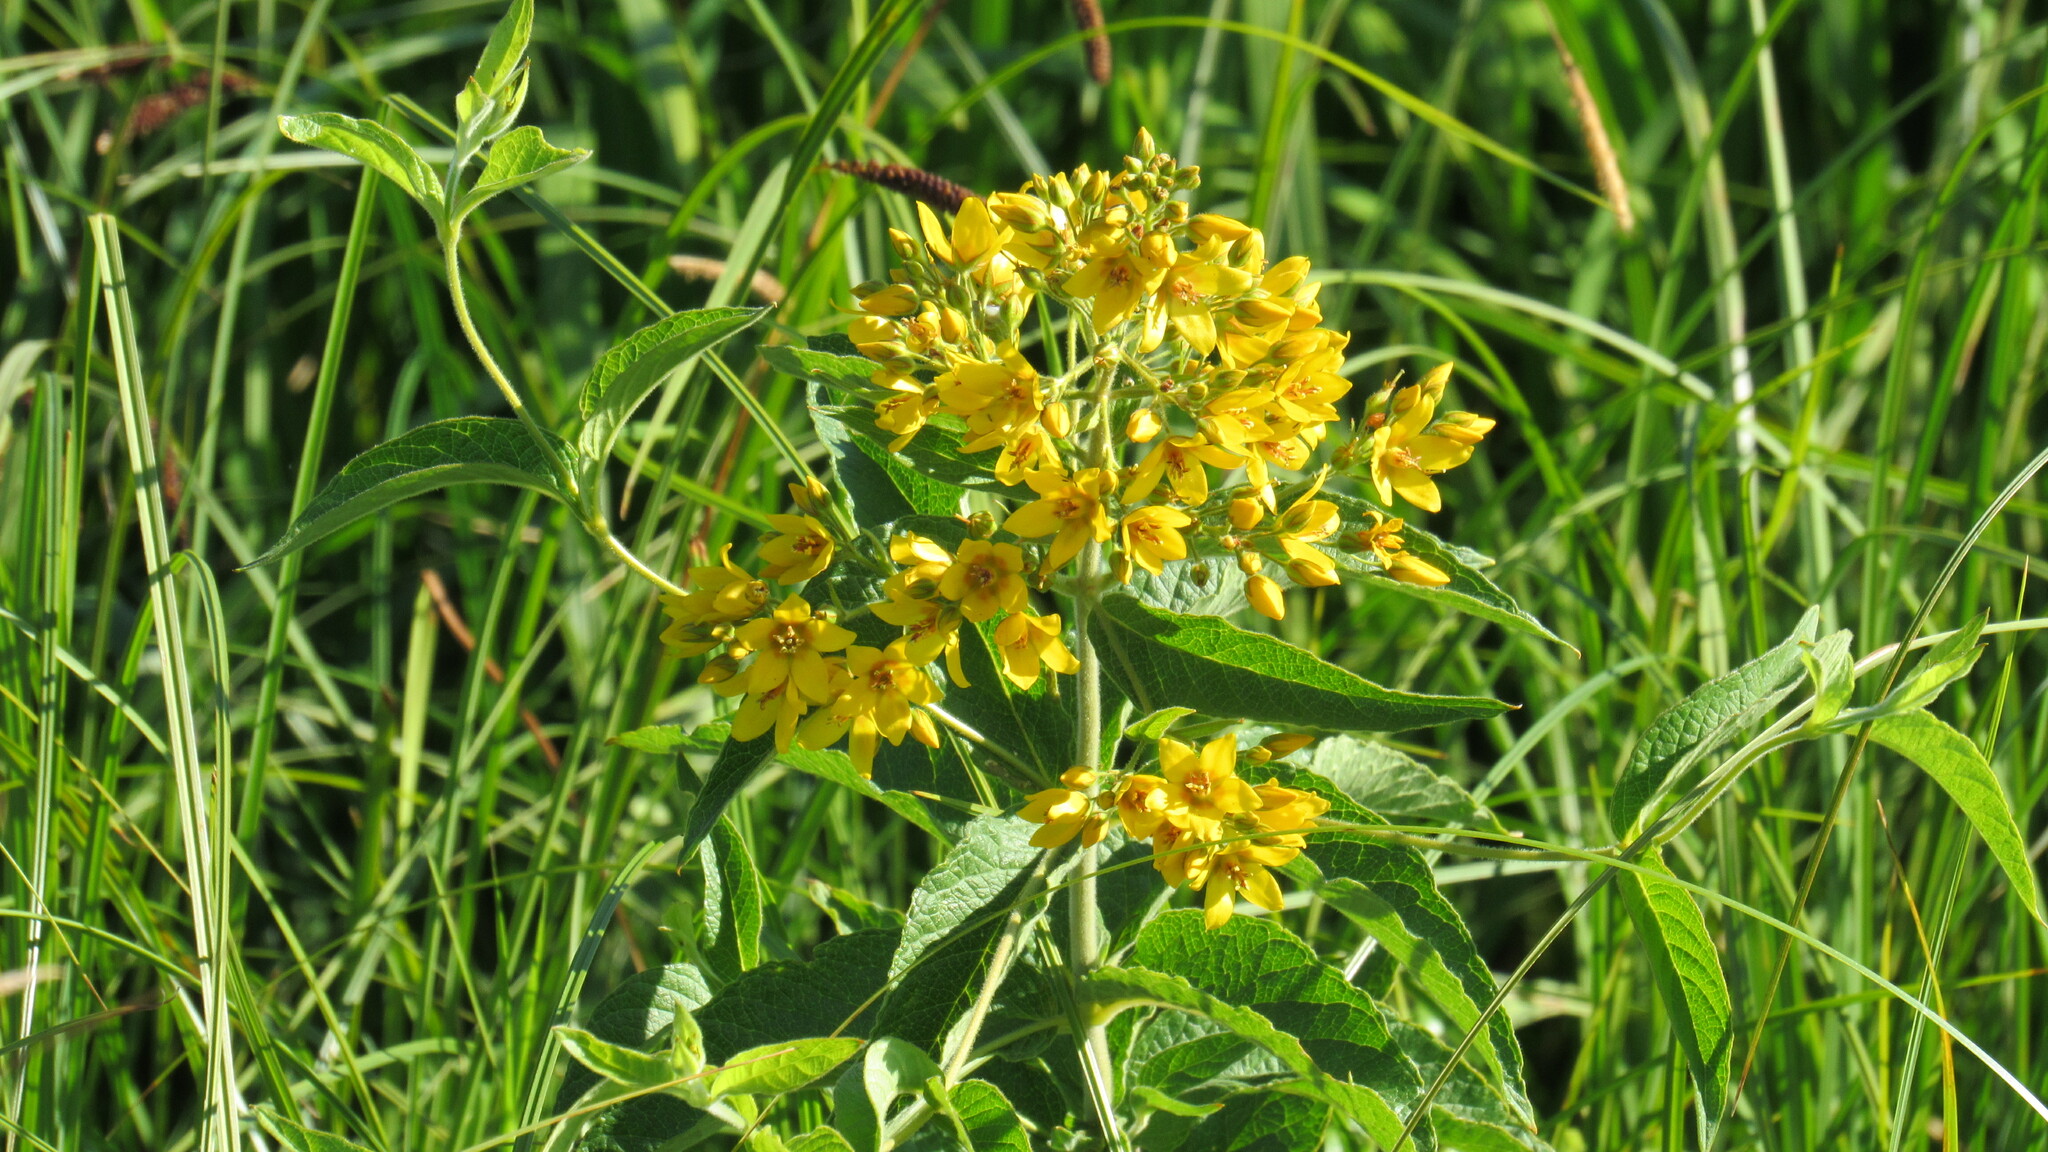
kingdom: Plantae
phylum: Tracheophyta
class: Magnoliopsida
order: Ericales
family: Primulaceae
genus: Lysimachia
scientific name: Lysimachia vulgaris
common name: Yellow loosestrife
